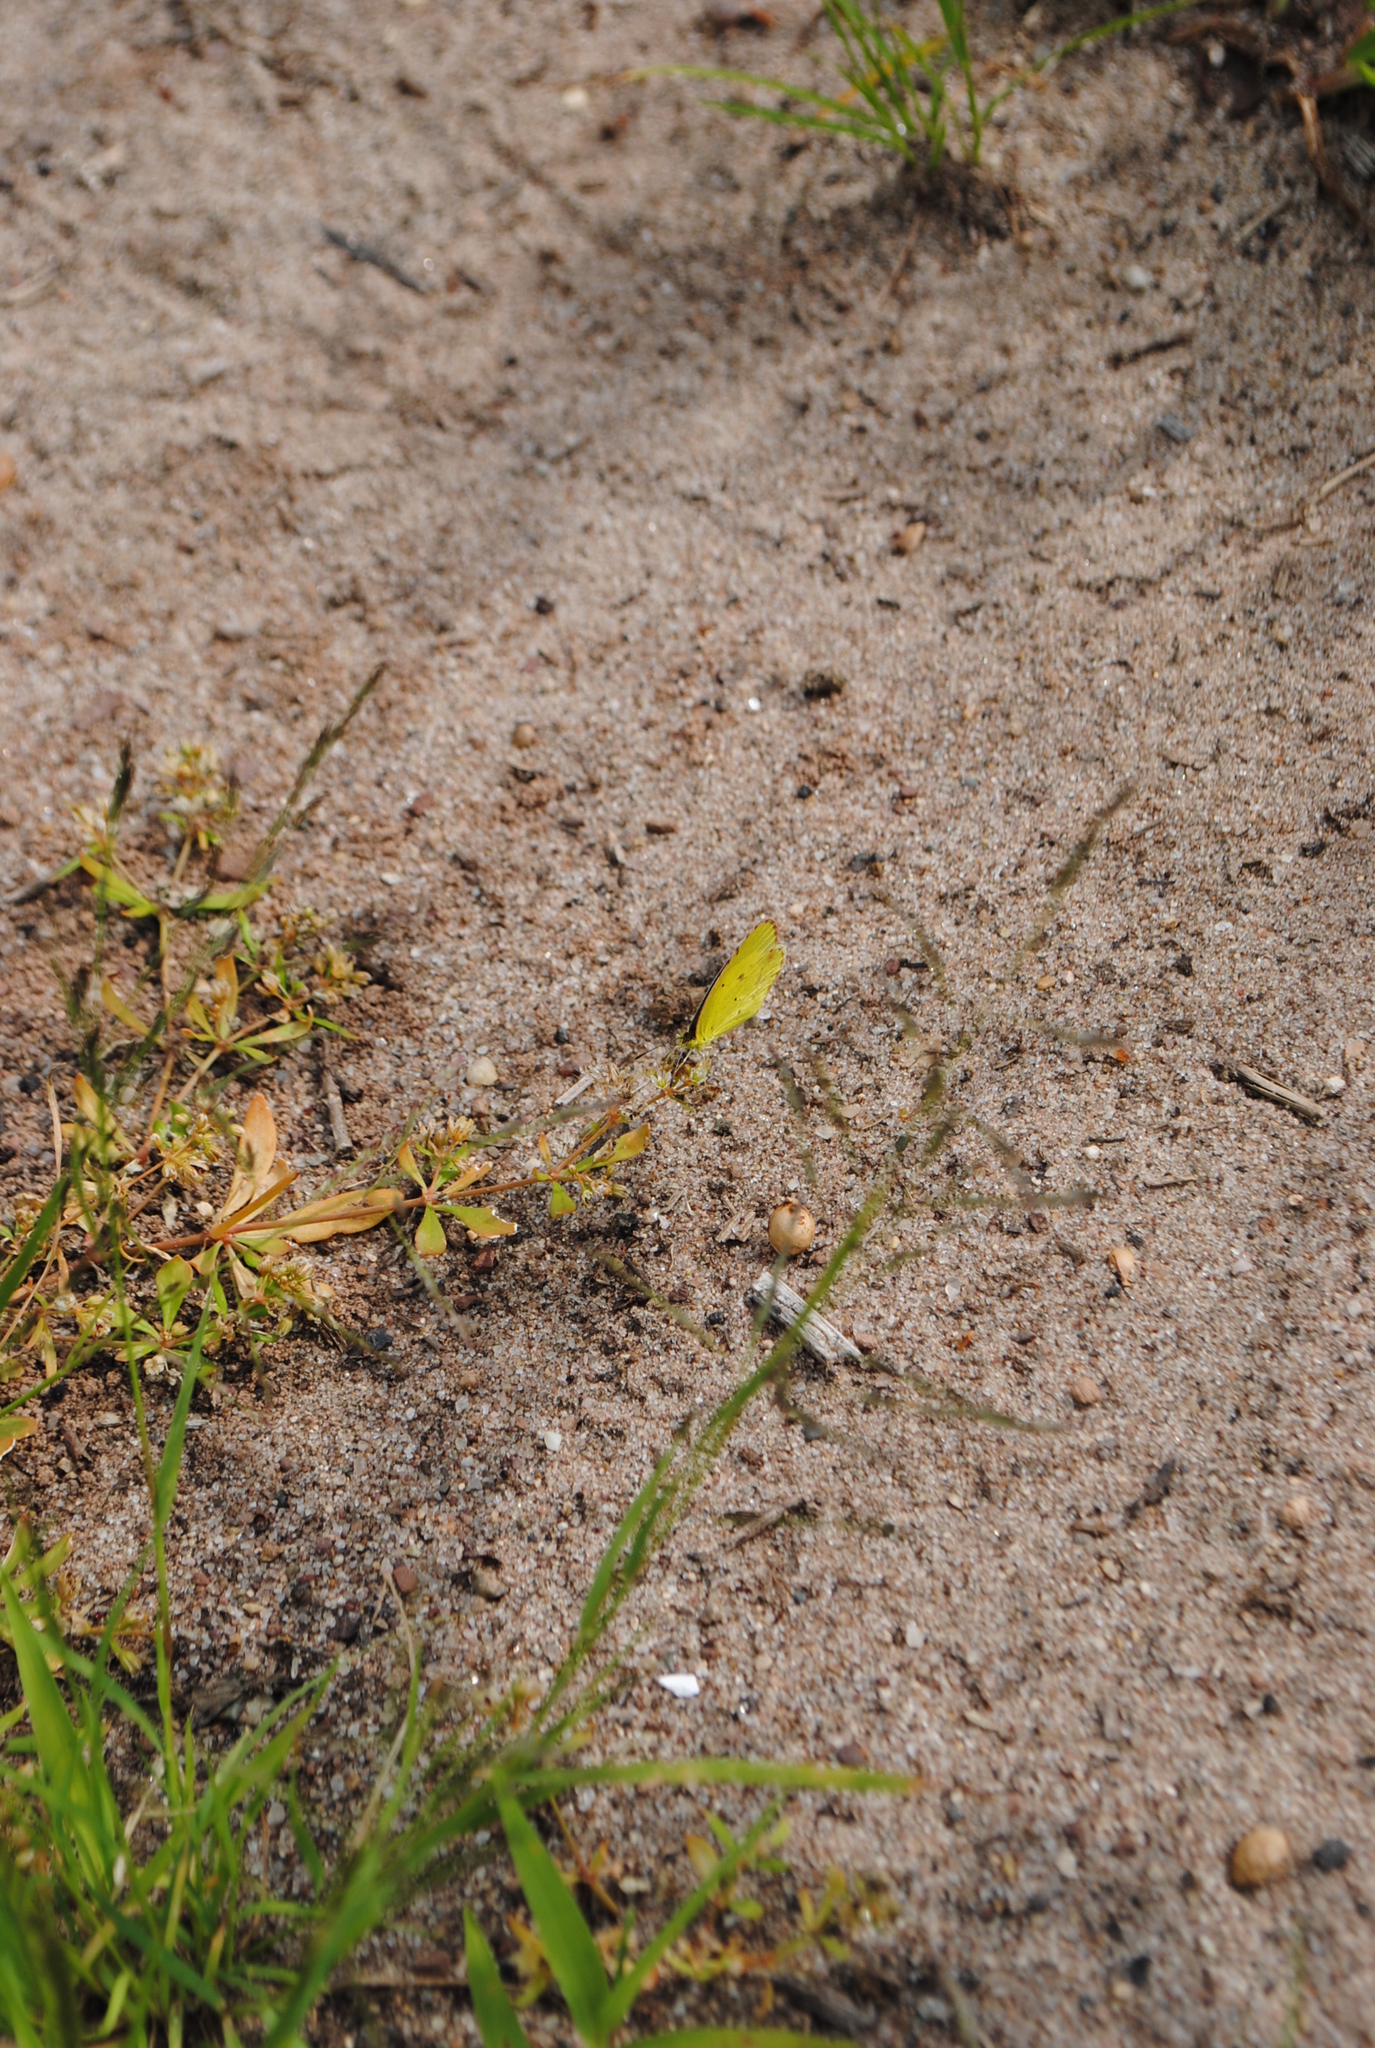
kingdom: Animalia
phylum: Arthropoda
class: Insecta
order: Lepidoptera
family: Pieridae
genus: Pyrisitia
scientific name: Pyrisitia lisa
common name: Little yellow
